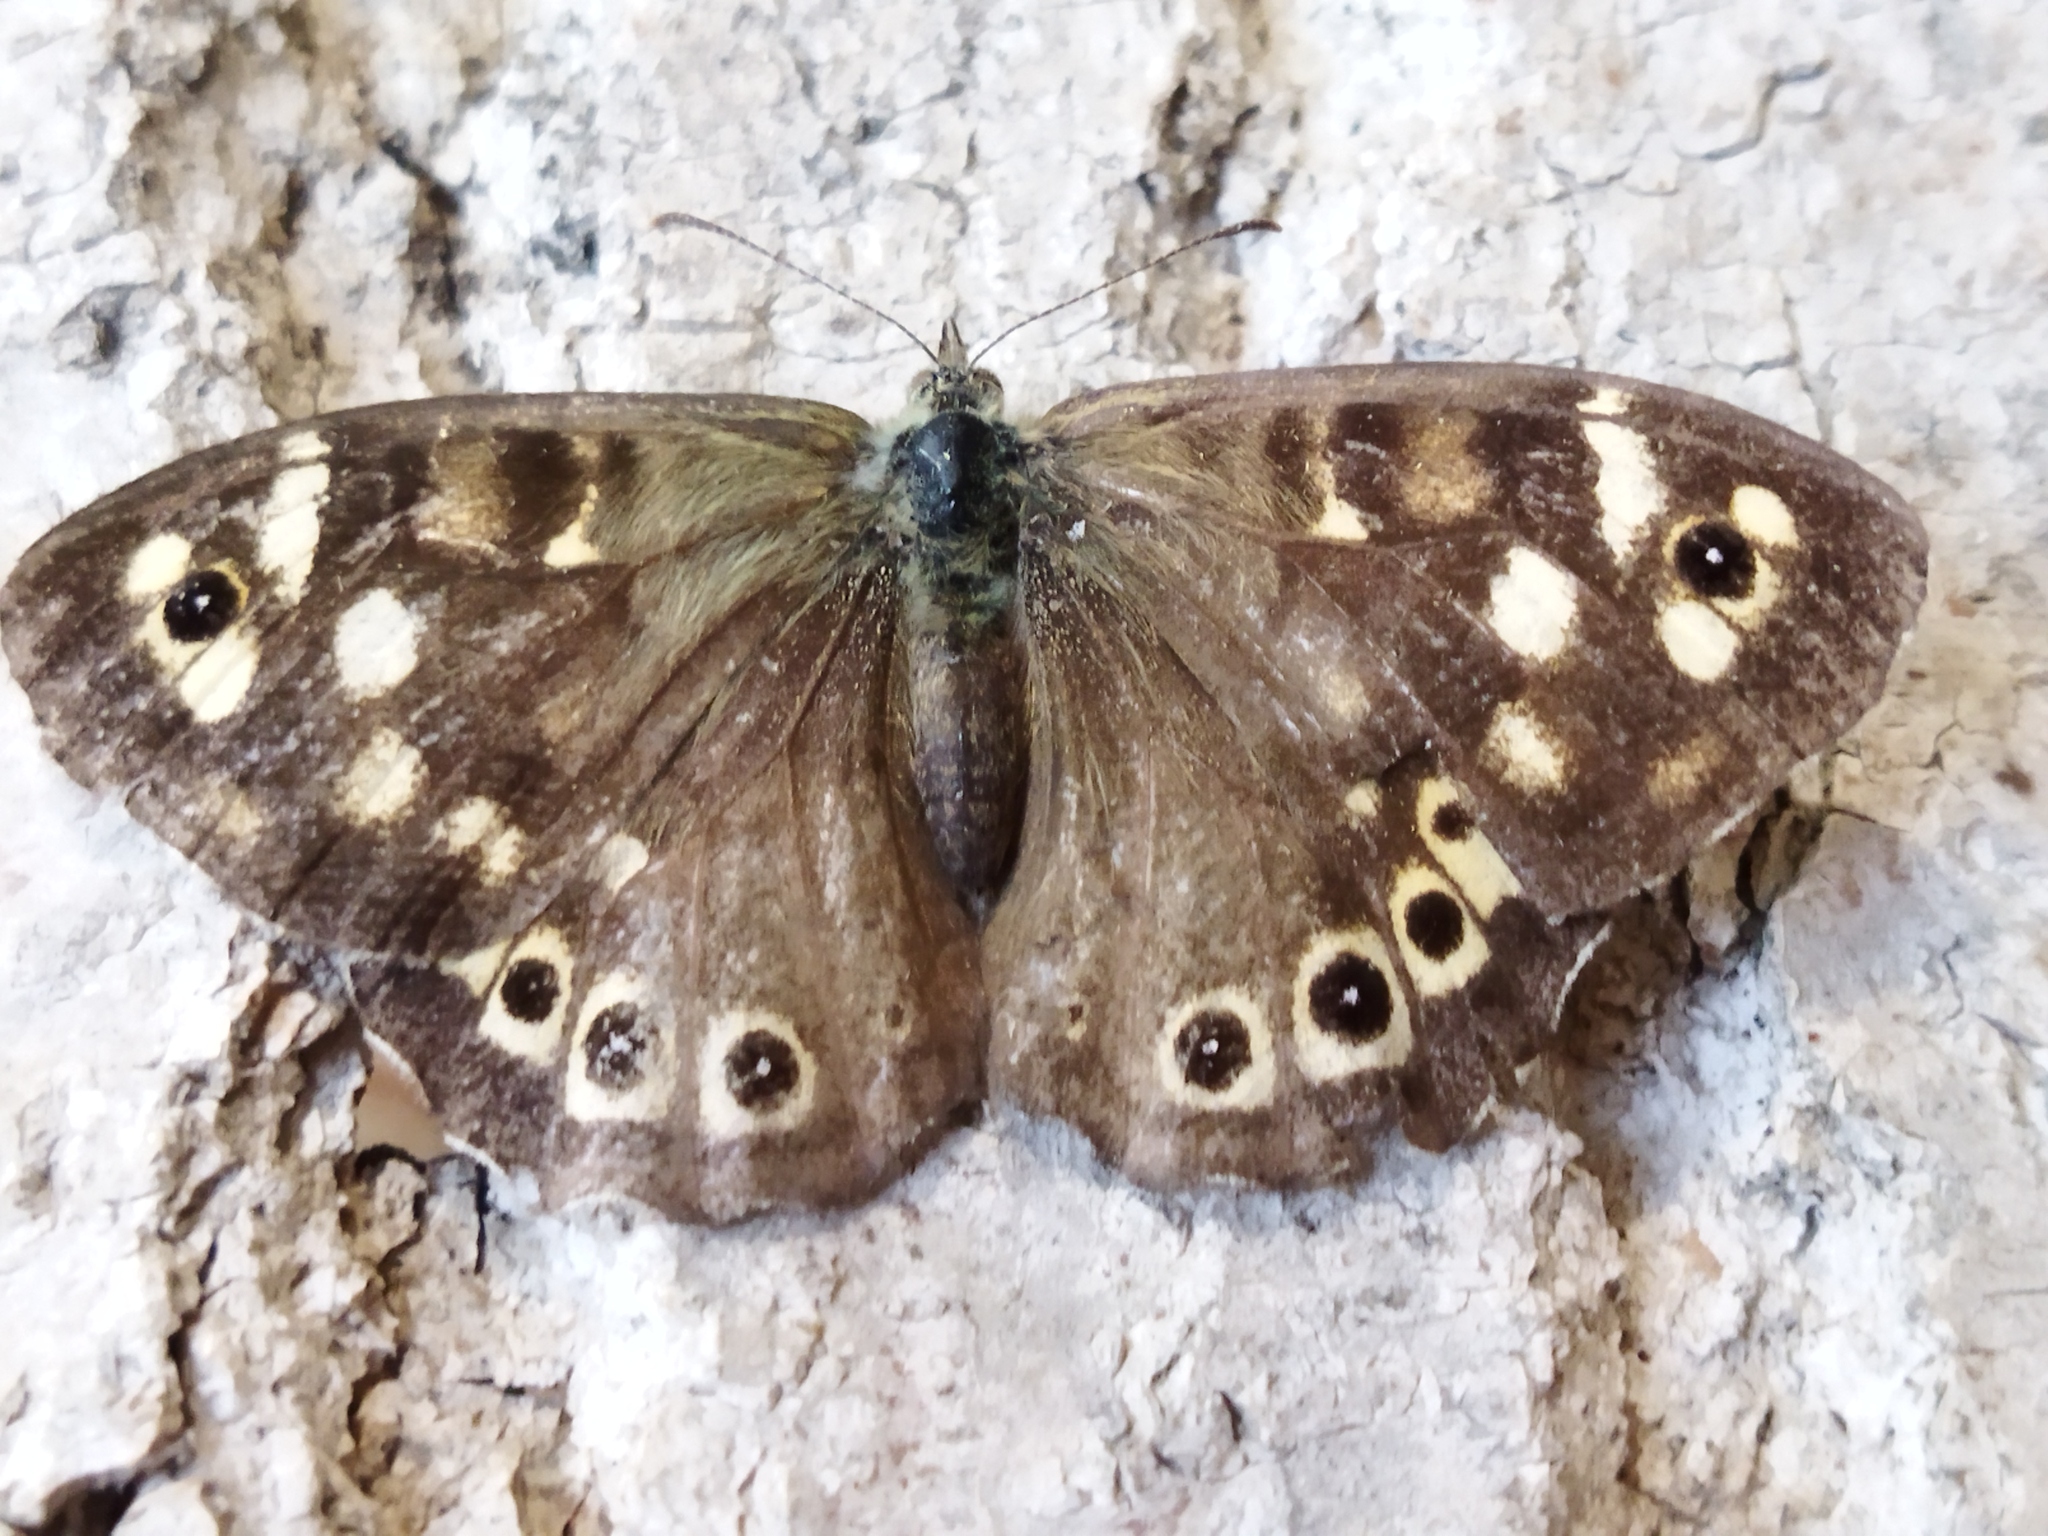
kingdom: Animalia
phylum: Arthropoda
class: Insecta
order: Lepidoptera
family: Nymphalidae
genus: Pararge
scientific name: Pararge aegeria
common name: Speckled wood
